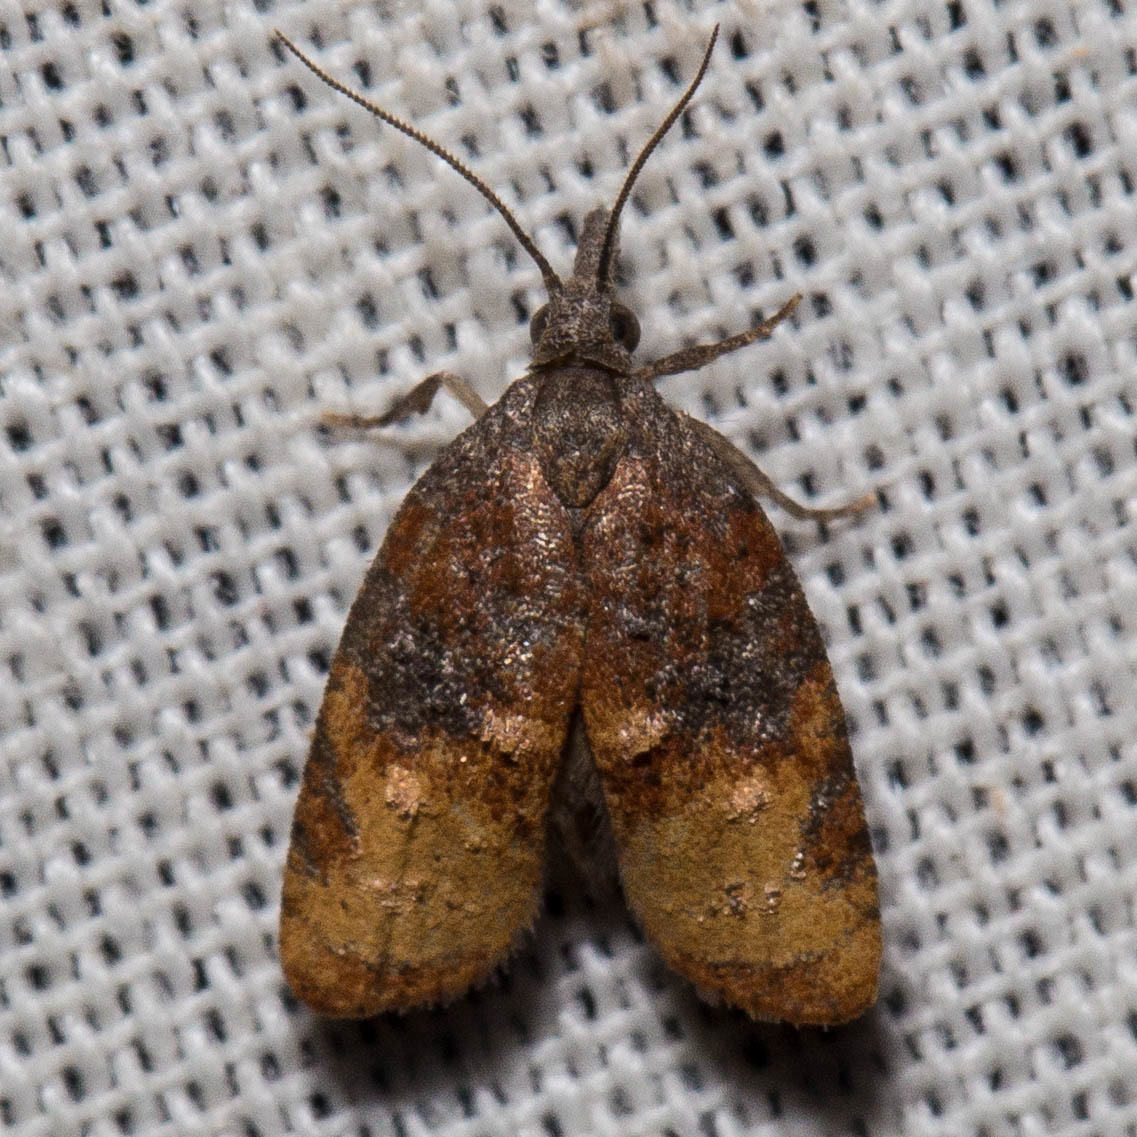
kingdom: Animalia
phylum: Arthropoda
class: Insecta
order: Lepidoptera
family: Tortricidae
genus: Platynota
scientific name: Platynota stultana
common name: Omnivorous leafroller
